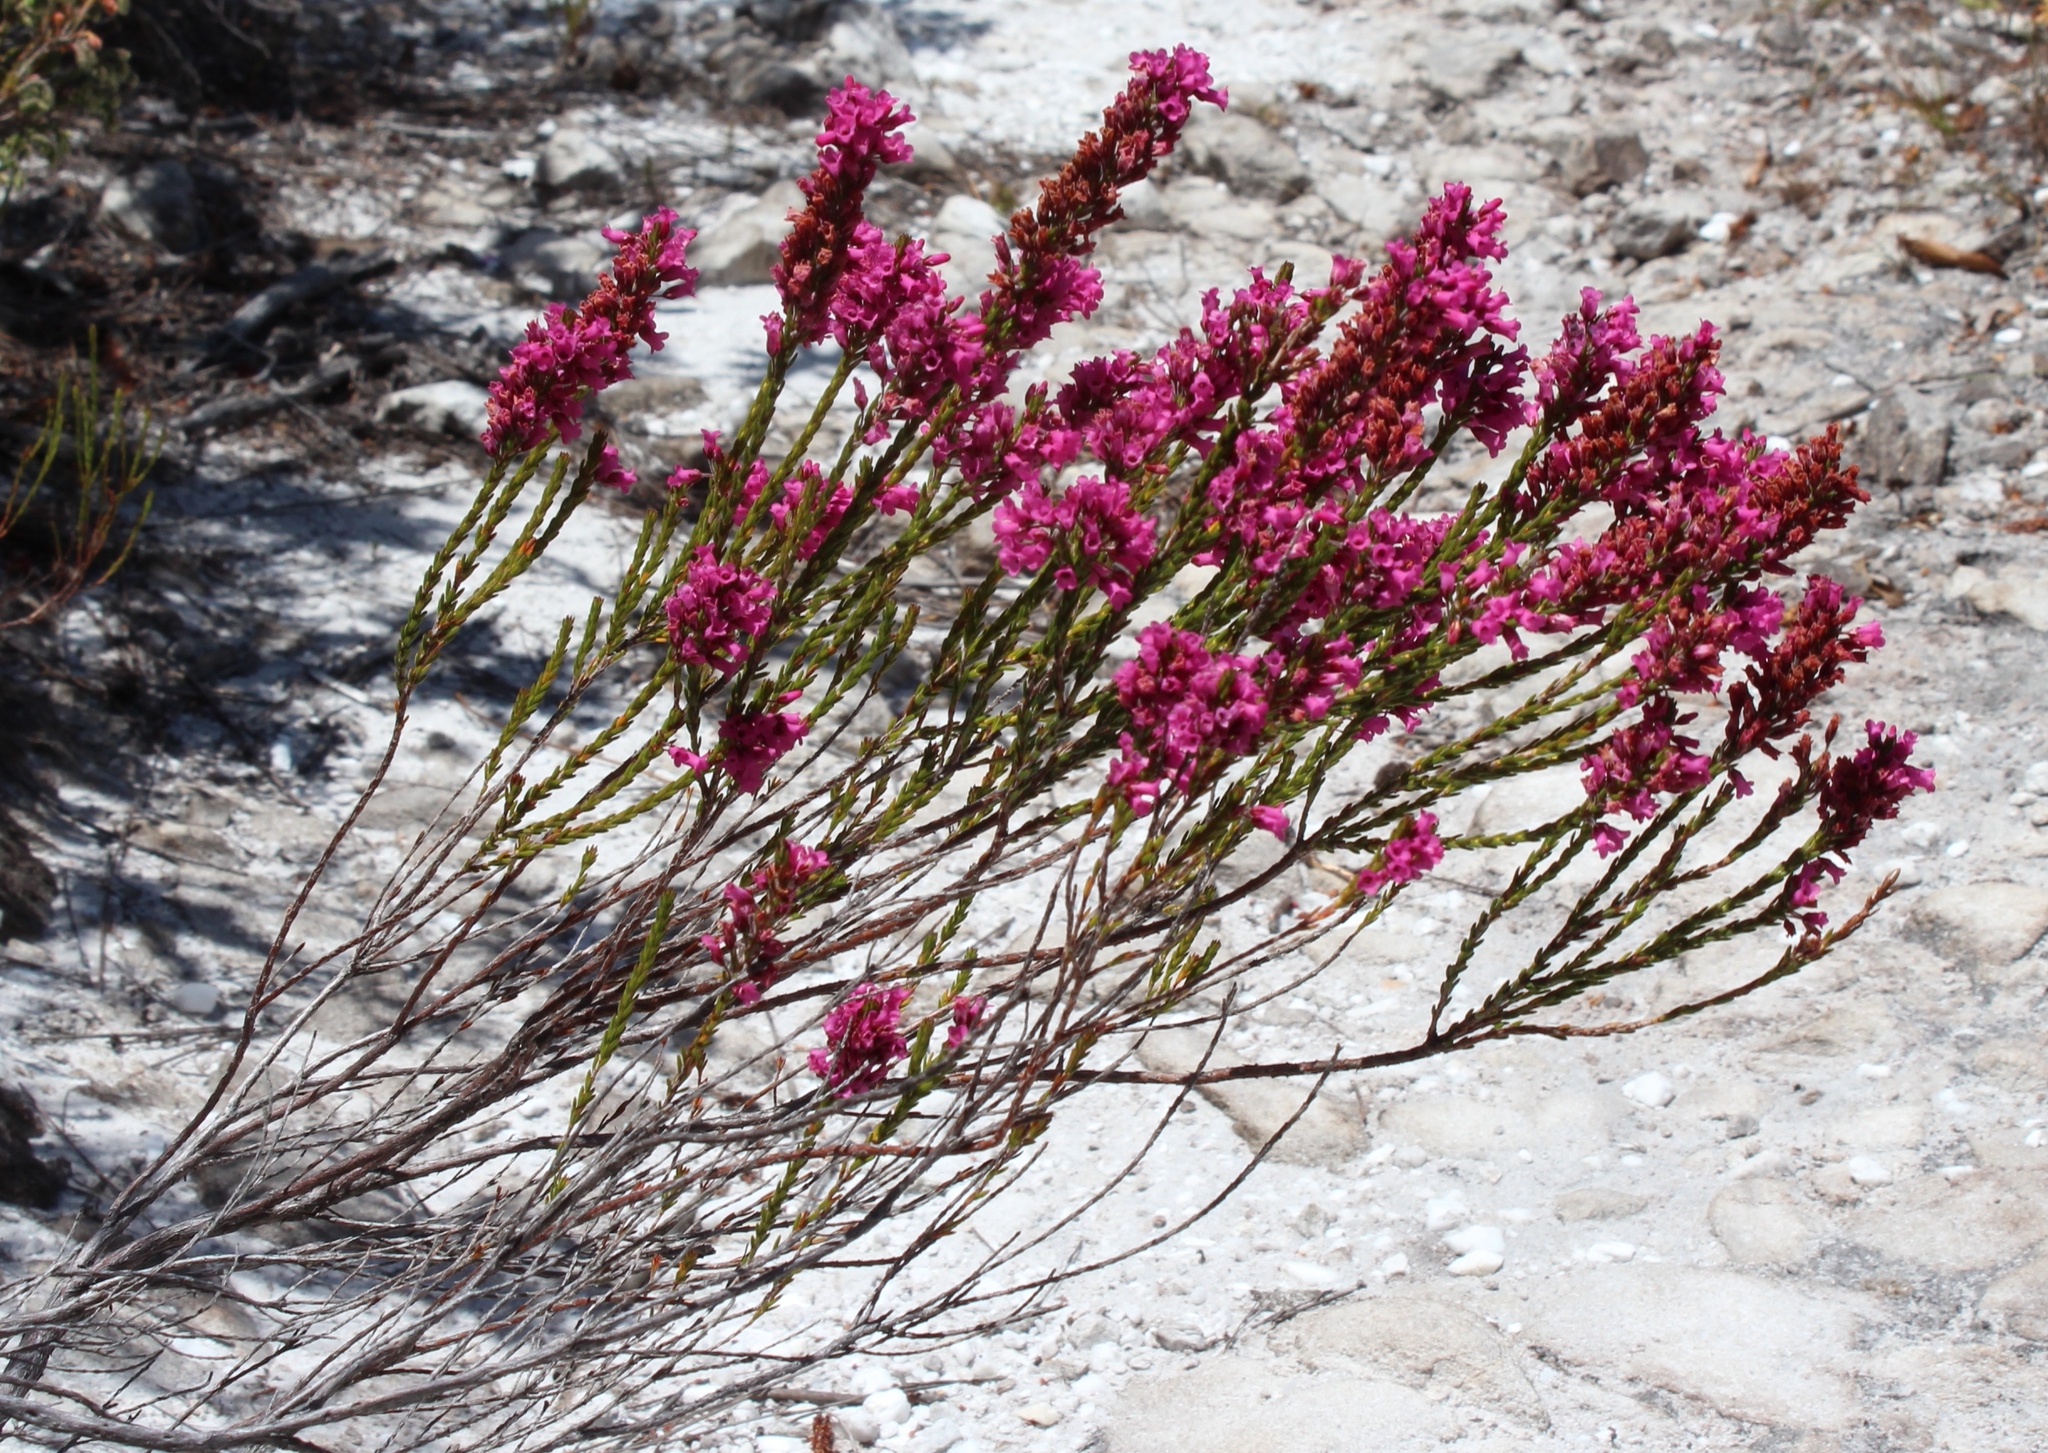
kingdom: Plantae
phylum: Tracheophyta
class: Magnoliopsida
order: Ericales
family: Ericaceae
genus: Erica
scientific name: Erica pulchella
